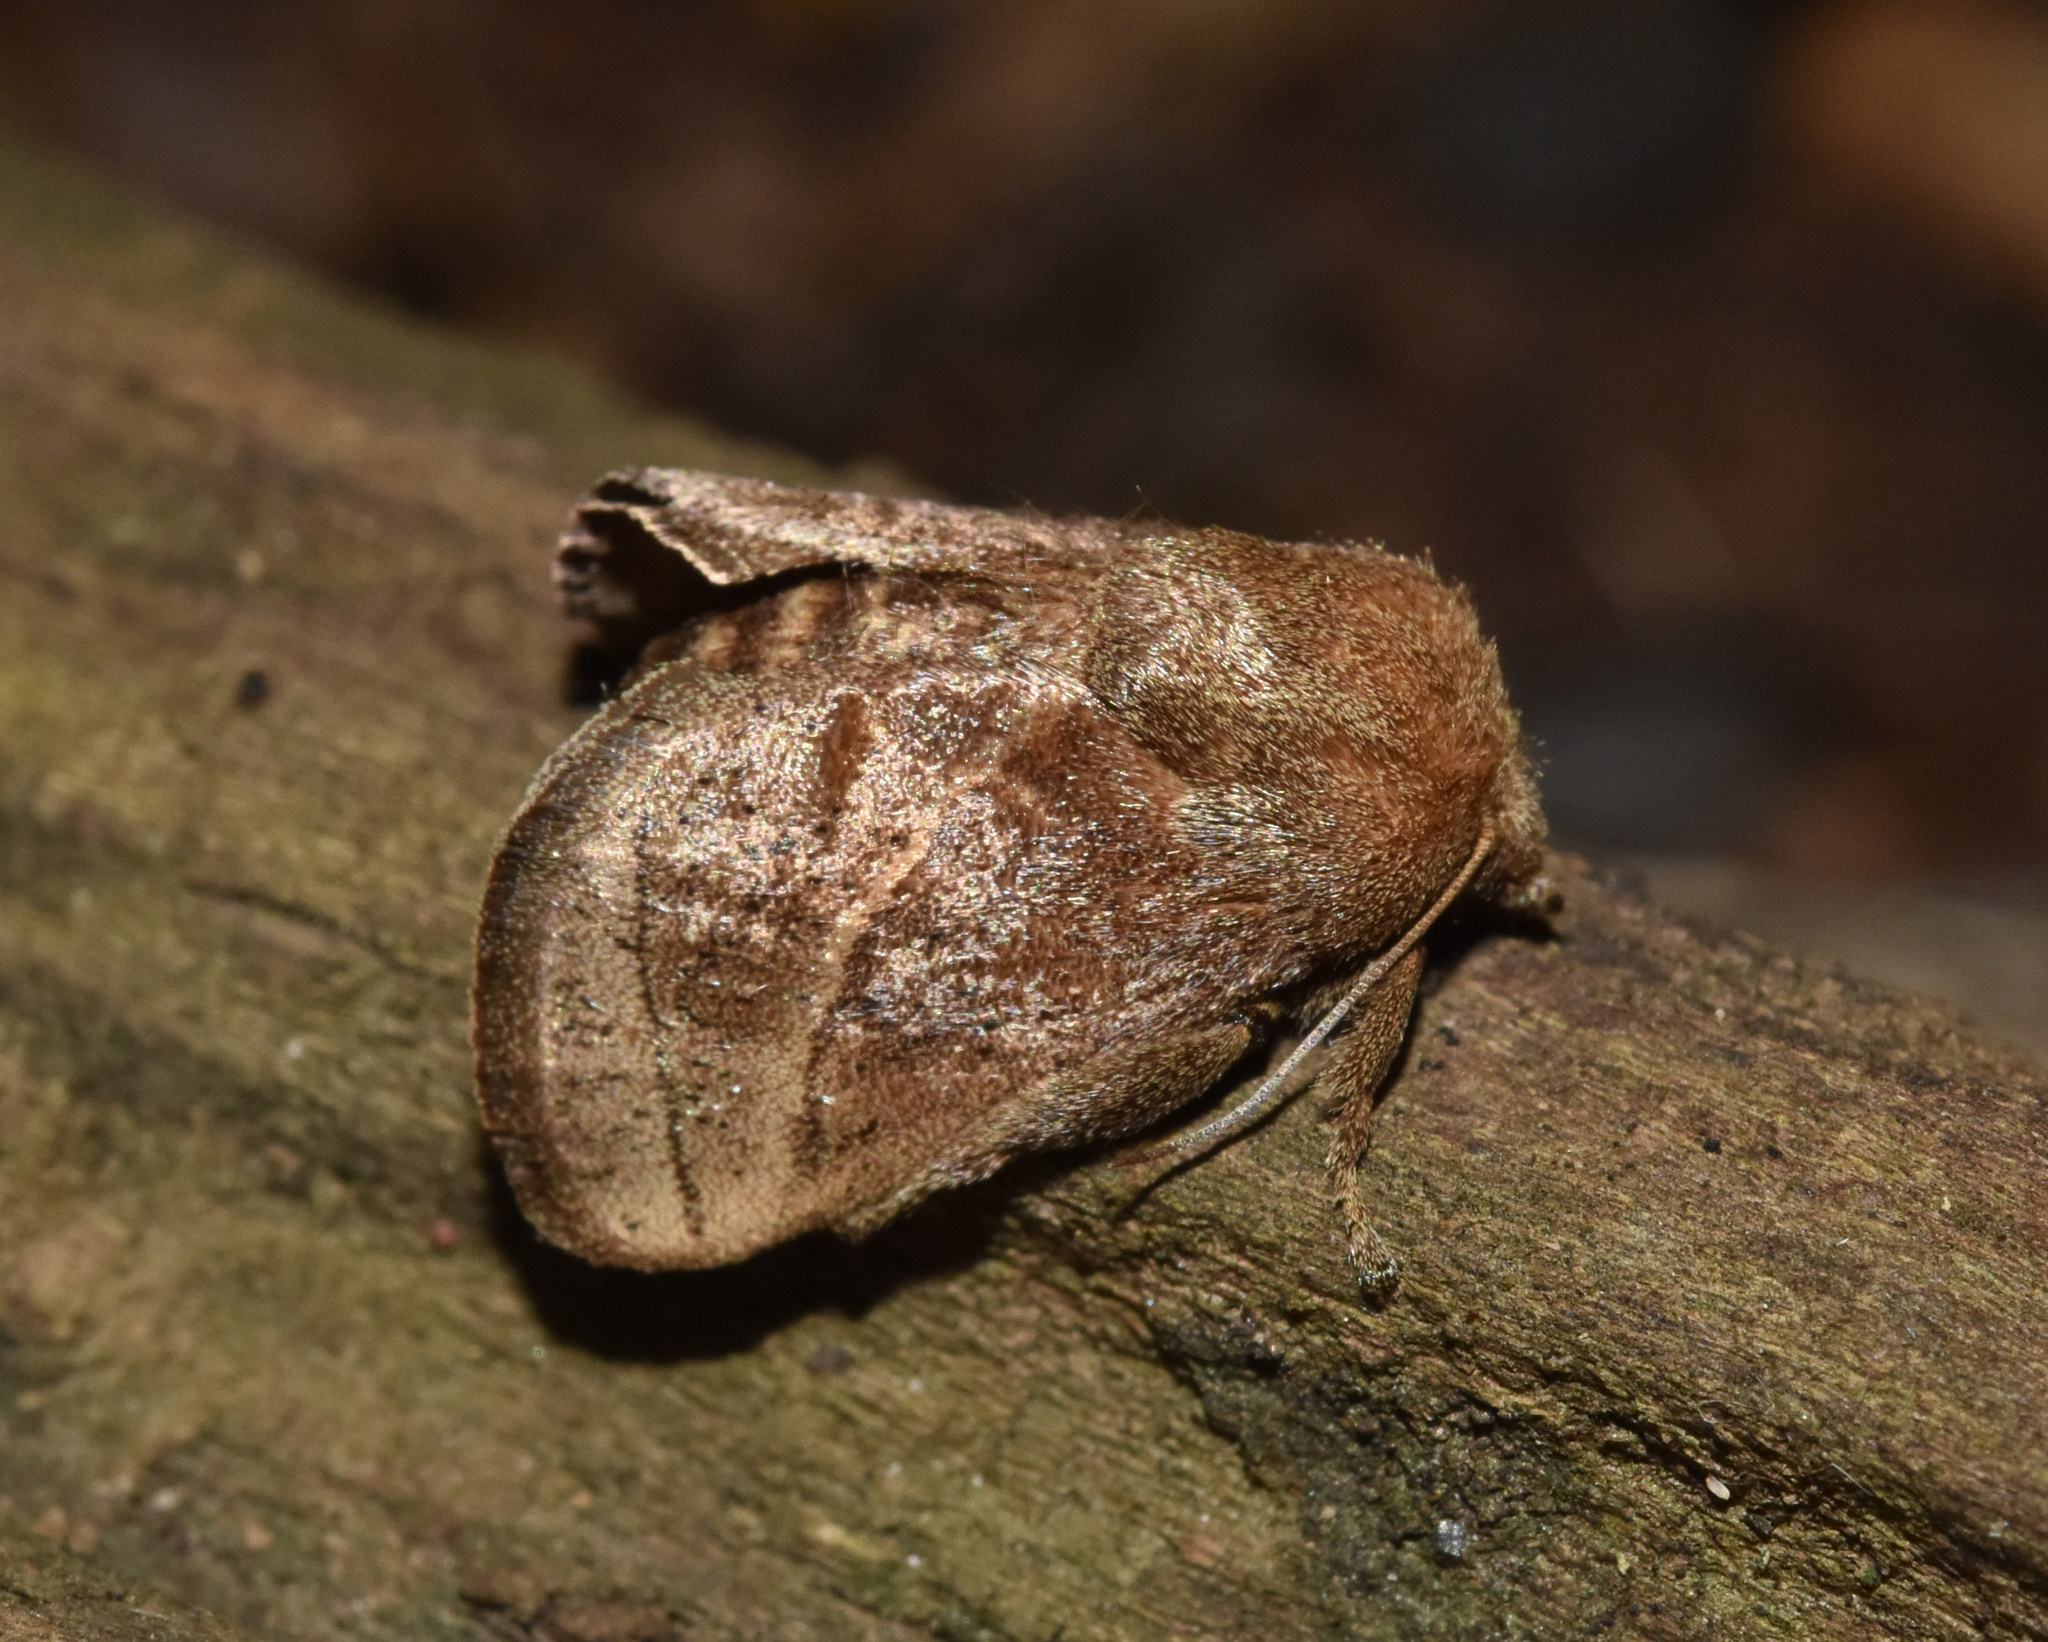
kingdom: Animalia
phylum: Arthropoda
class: Insecta
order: Lepidoptera
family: Limacodidae
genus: Omocenoides
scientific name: Omocenoides isophanes
